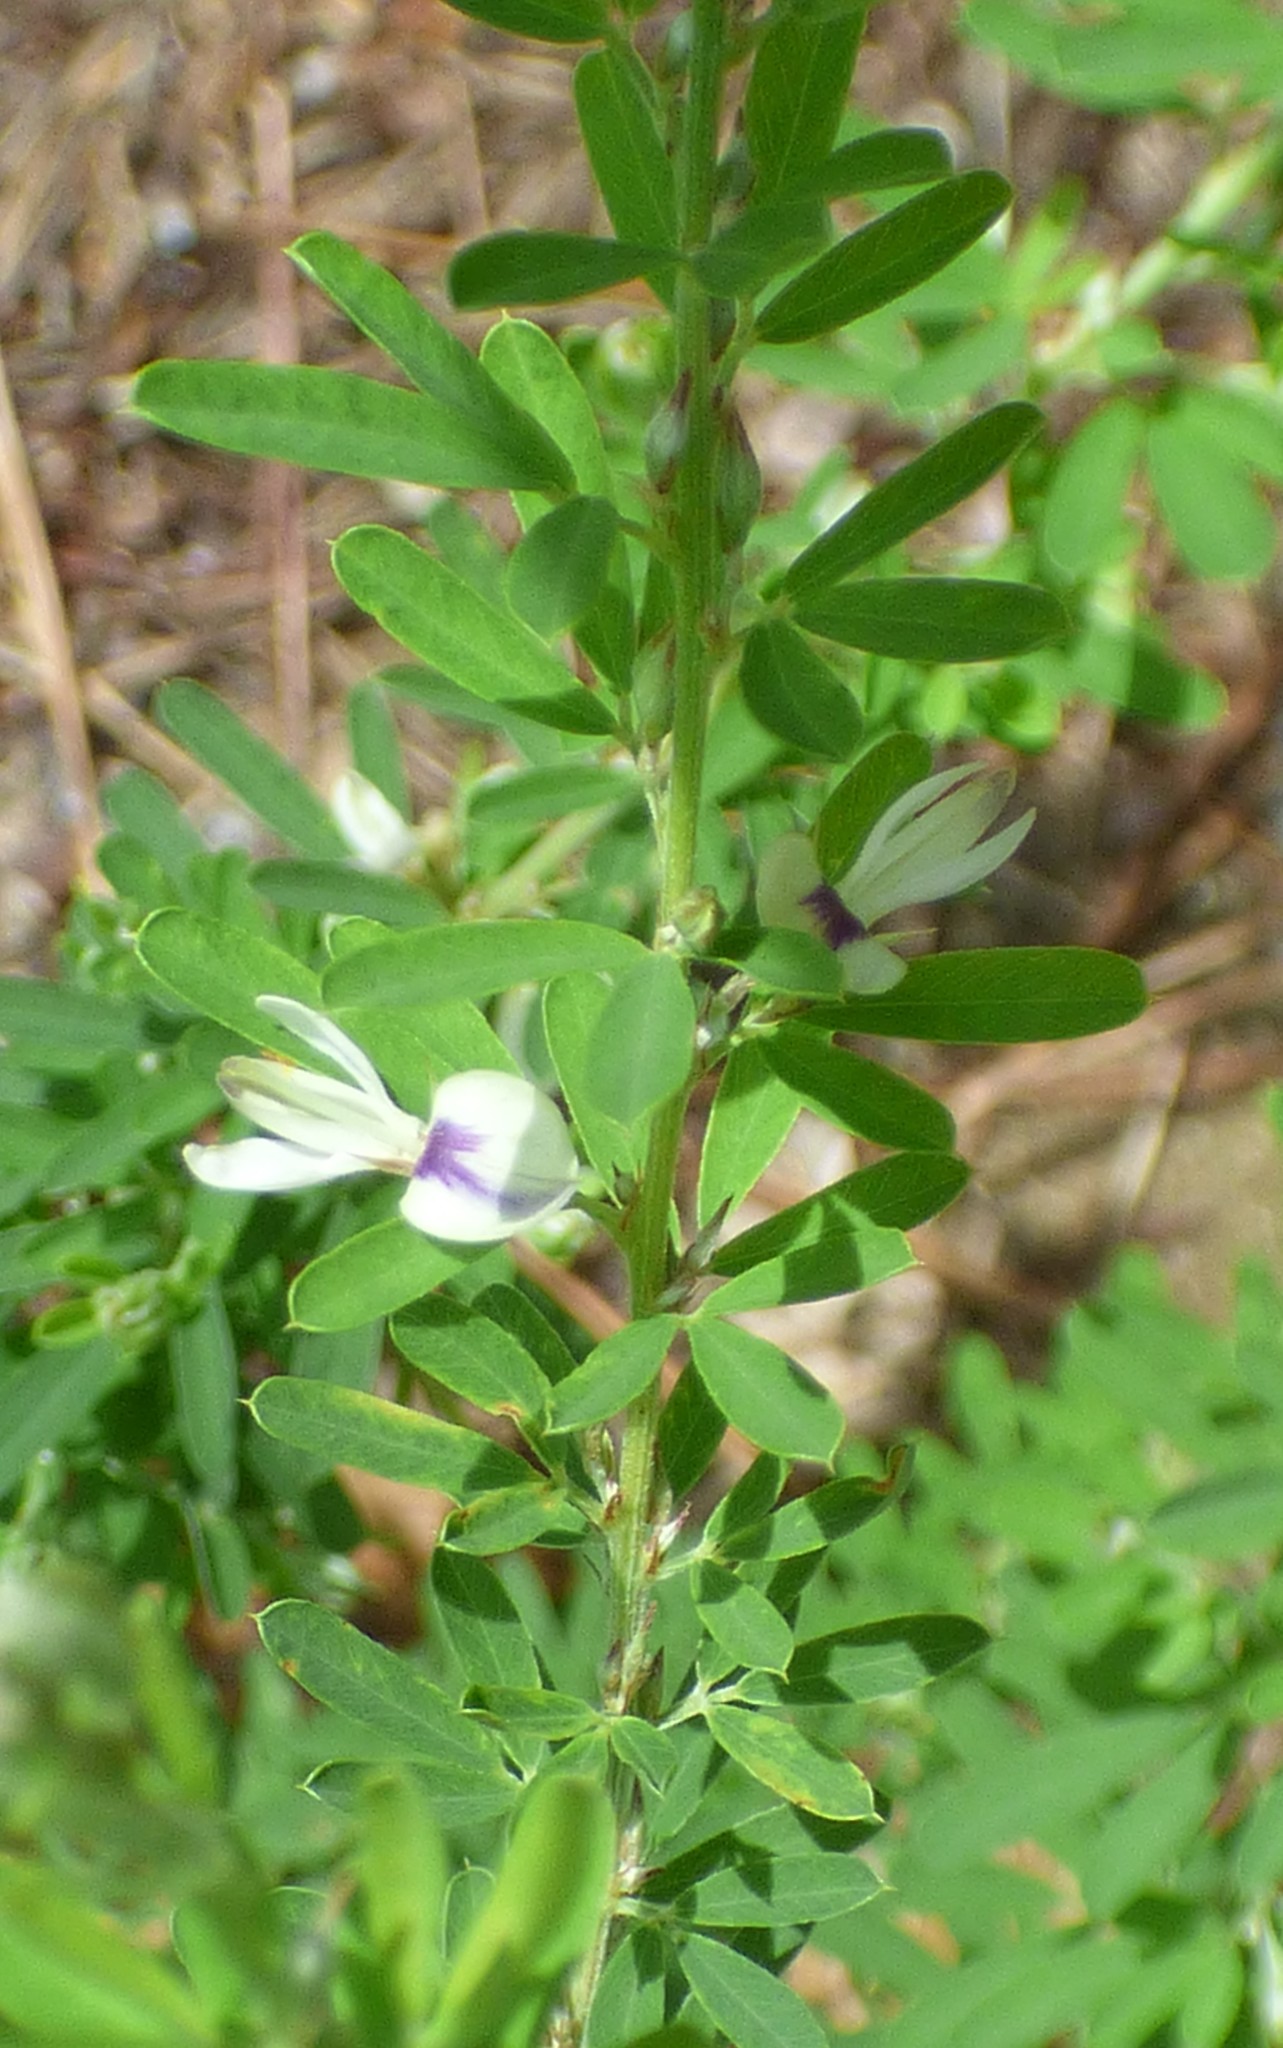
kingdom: Plantae
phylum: Tracheophyta
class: Magnoliopsida
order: Fabales
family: Fabaceae
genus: Lespedeza
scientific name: Lespedeza cuneata
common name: Chinese bush-clover
